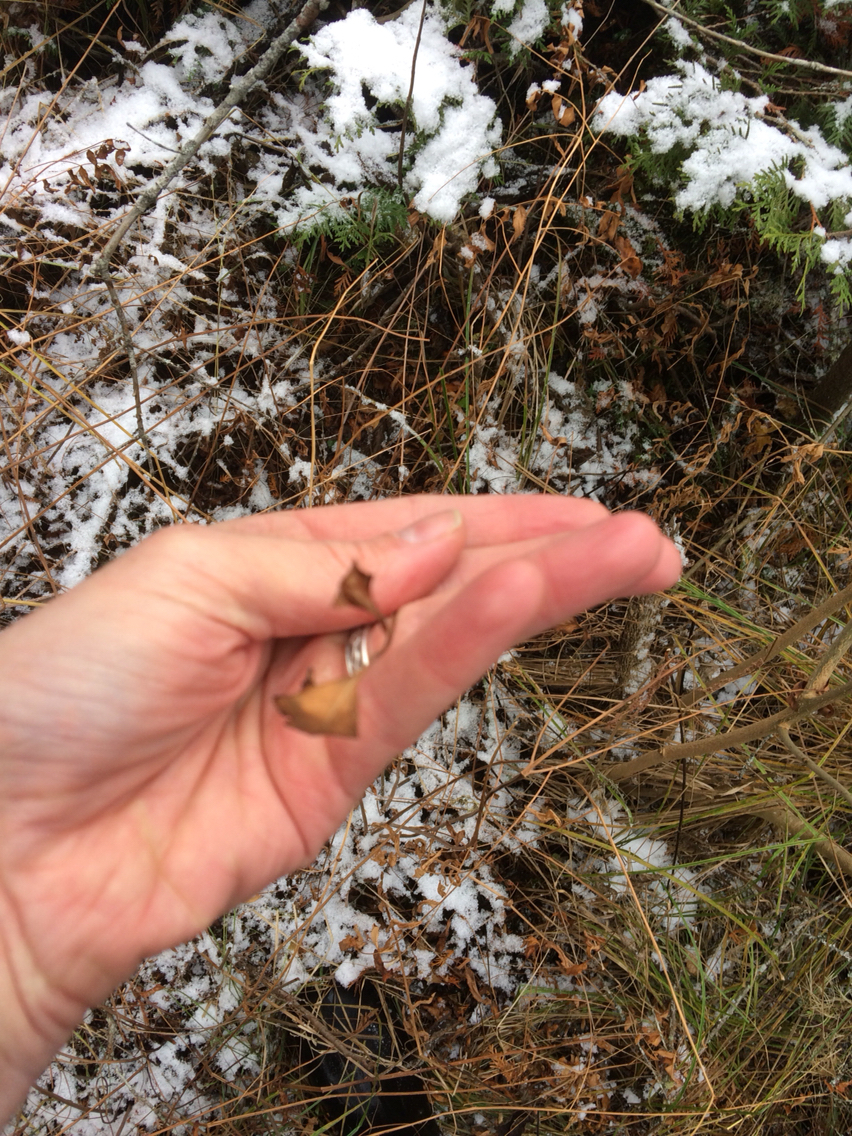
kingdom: Plantae
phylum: Tracheophyta
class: Polypodiopsida
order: Osmundales
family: Osmundaceae
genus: Osmunda
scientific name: Osmunda spectabilis
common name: American royal fern
